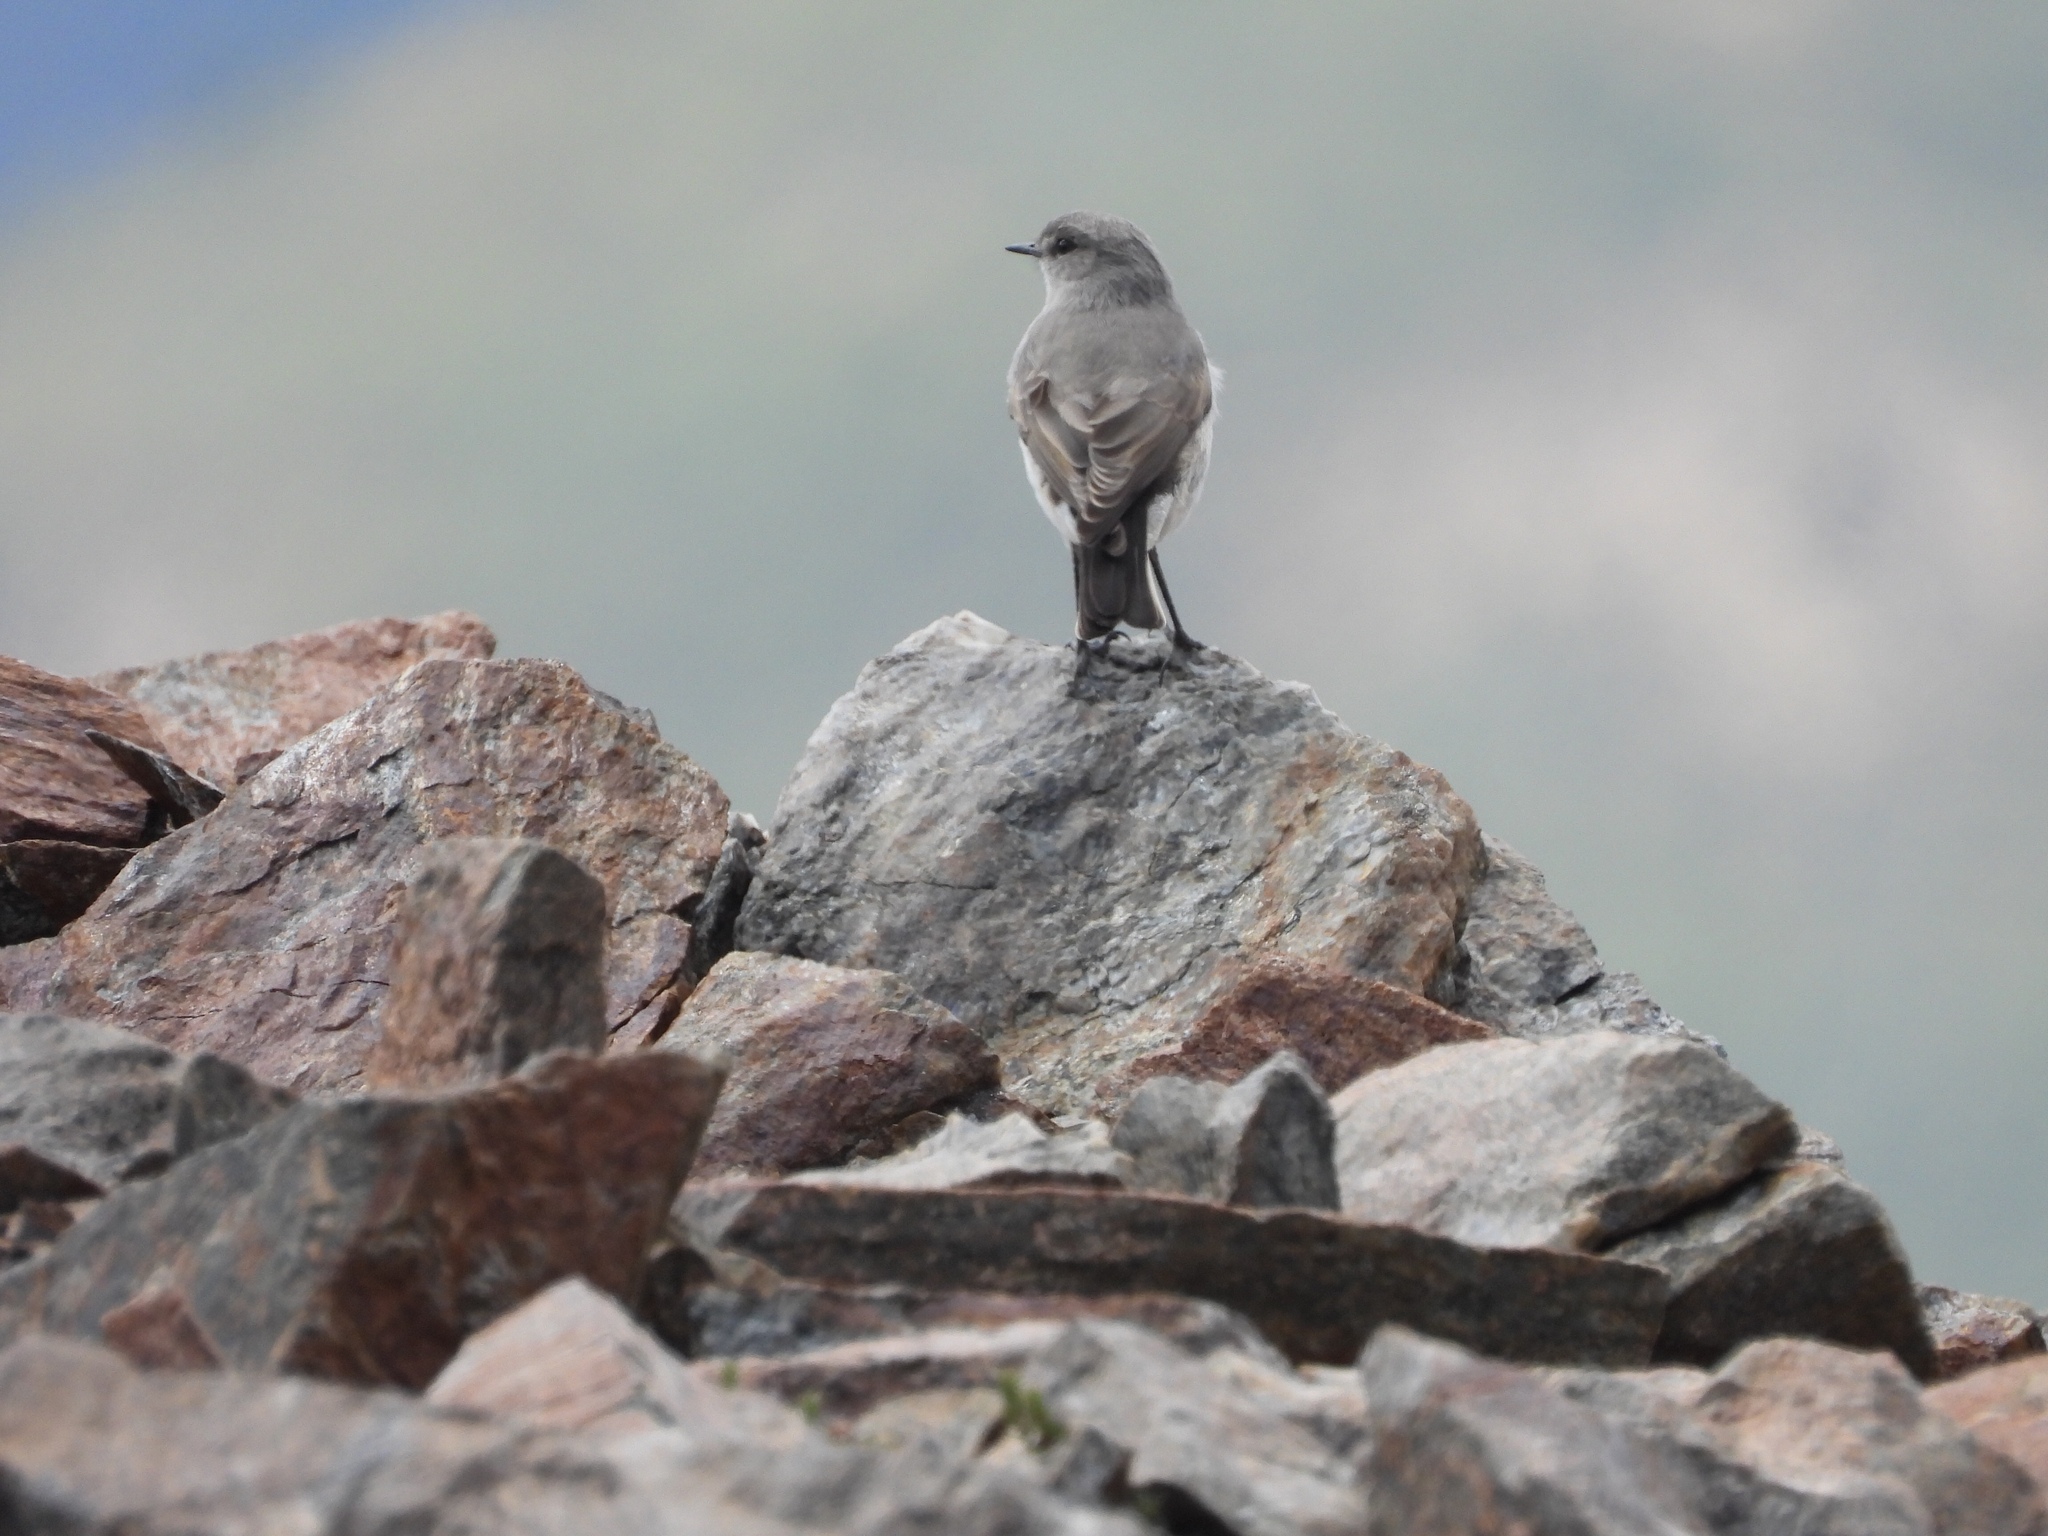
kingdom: Animalia
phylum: Chordata
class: Aves
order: Passeriformes
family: Tyrannidae
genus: Muscisaxicola
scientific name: Muscisaxicola maclovianus
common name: Dark-faced ground tyrant
